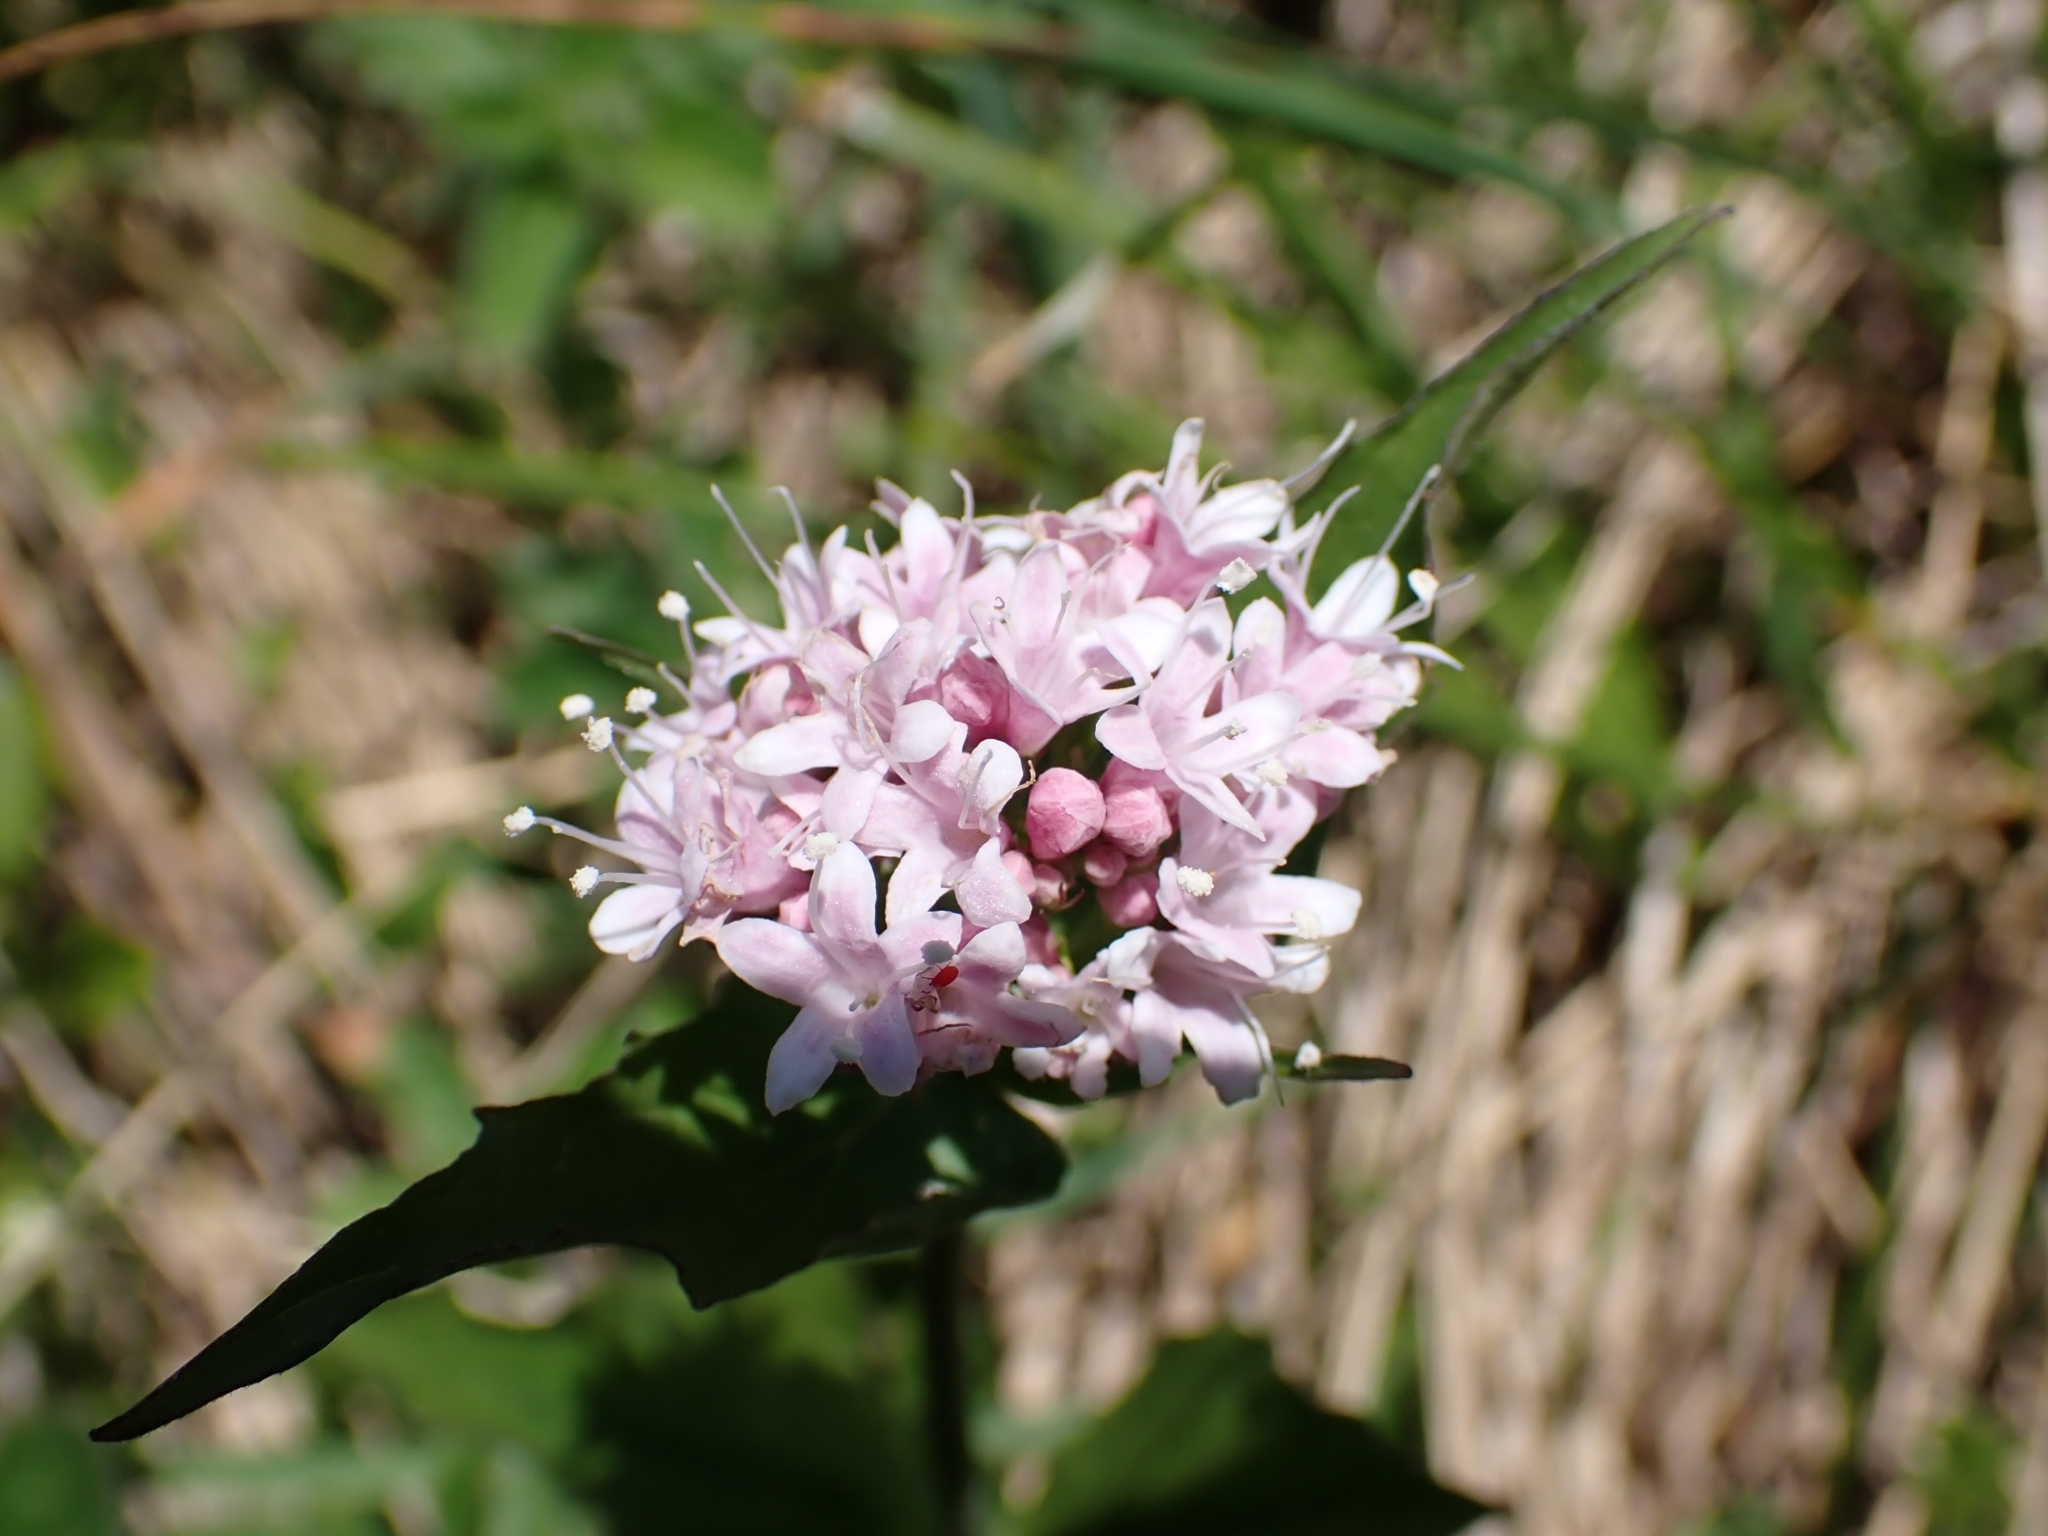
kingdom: Plantae
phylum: Tracheophyta
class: Magnoliopsida
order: Dipsacales
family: Caprifoliaceae
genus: Valeriana
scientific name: Valeriana montana
